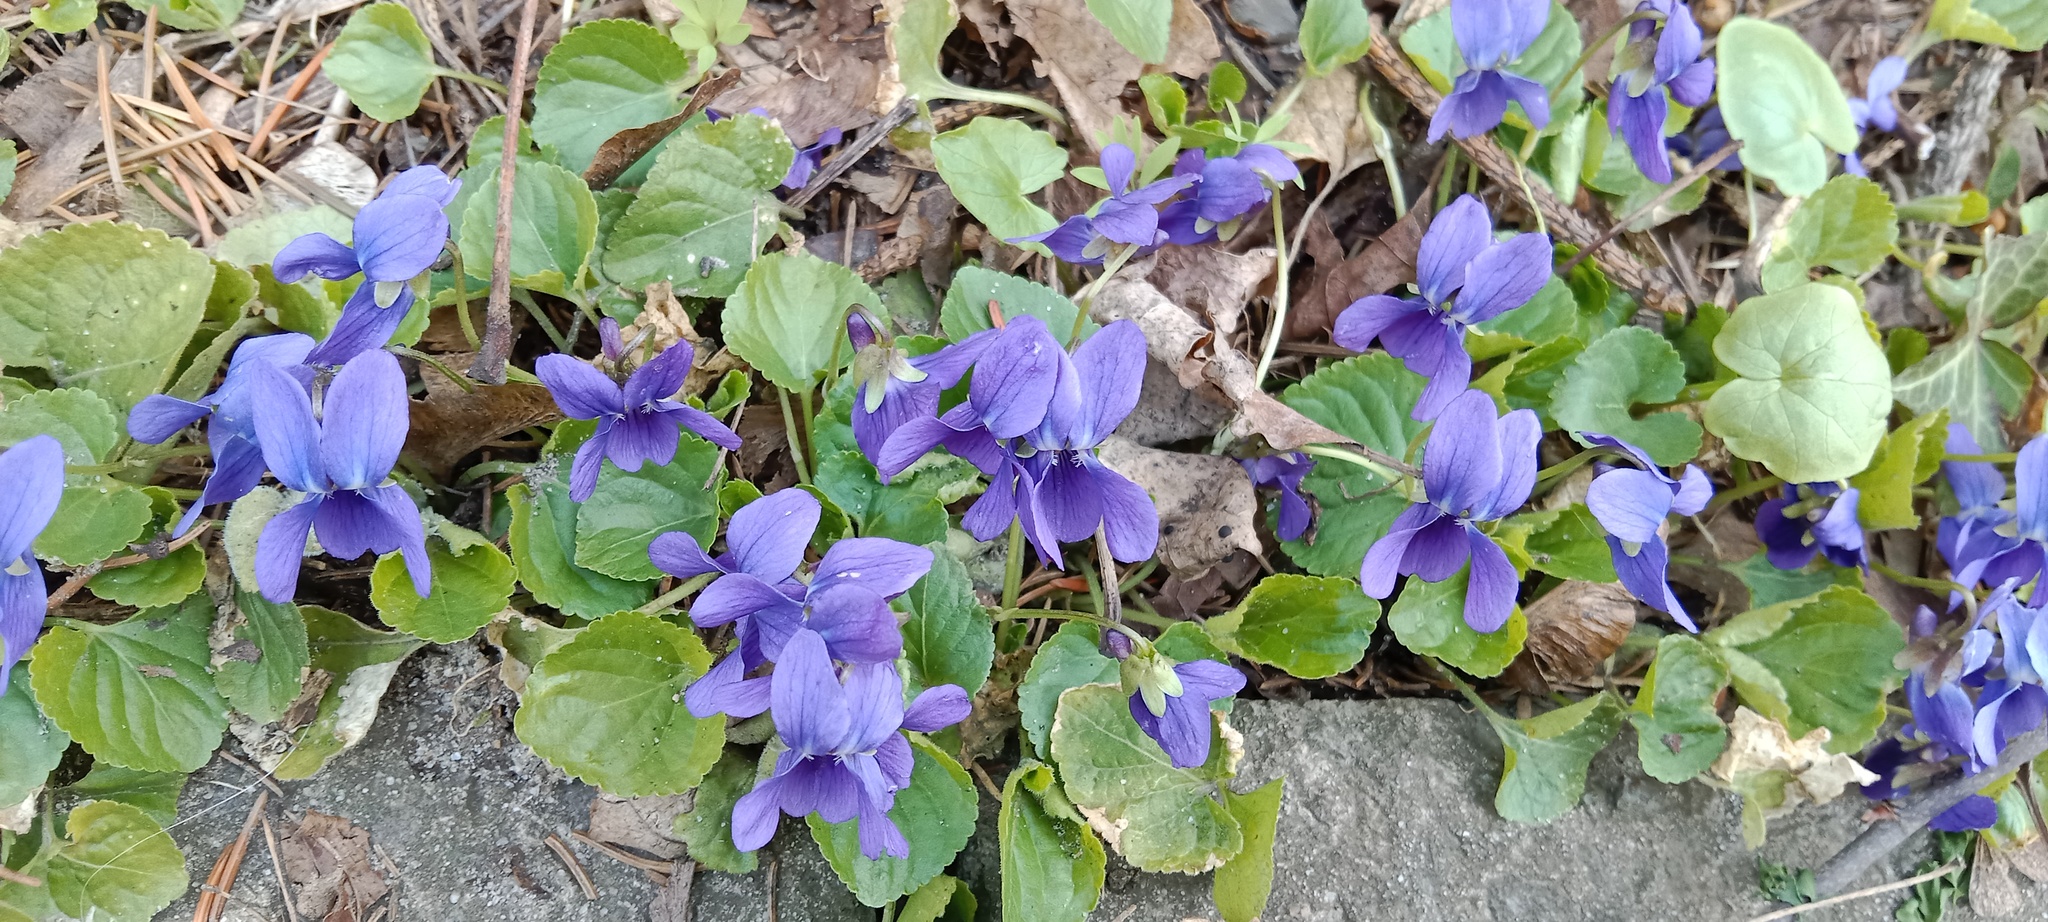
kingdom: Plantae
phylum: Tracheophyta
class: Magnoliopsida
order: Malpighiales
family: Violaceae
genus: Viola
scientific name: Viola odorata
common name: Sweet violet
